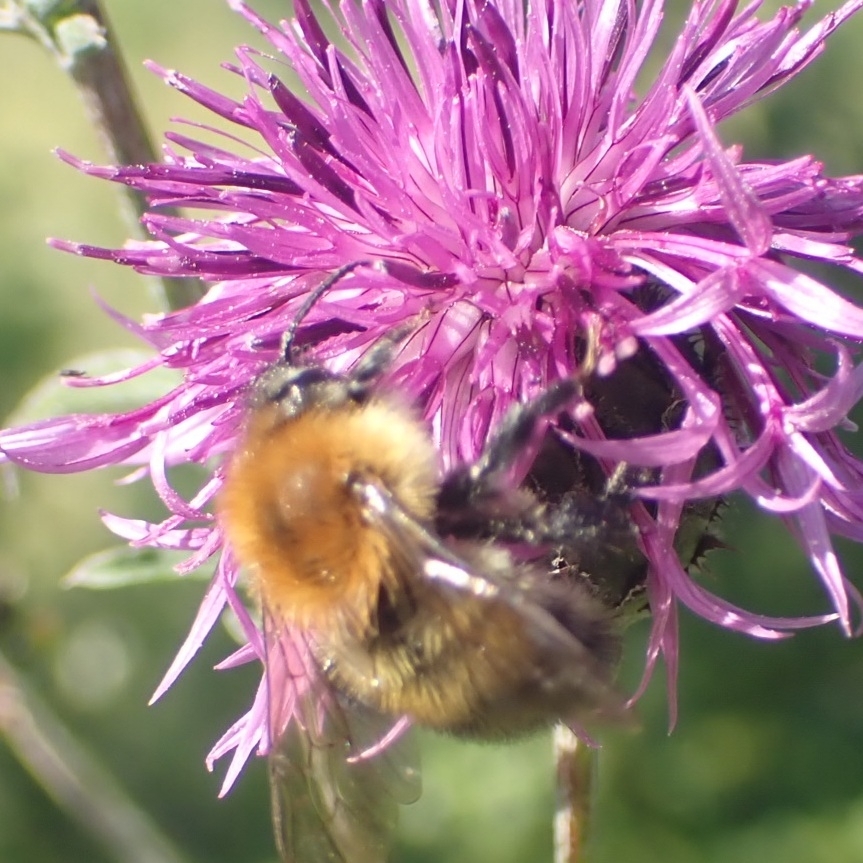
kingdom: Animalia
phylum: Arthropoda
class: Insecta
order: Hymenoptera
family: Apidae
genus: Bombus
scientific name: Bombus pascuorum
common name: Common carder bee
